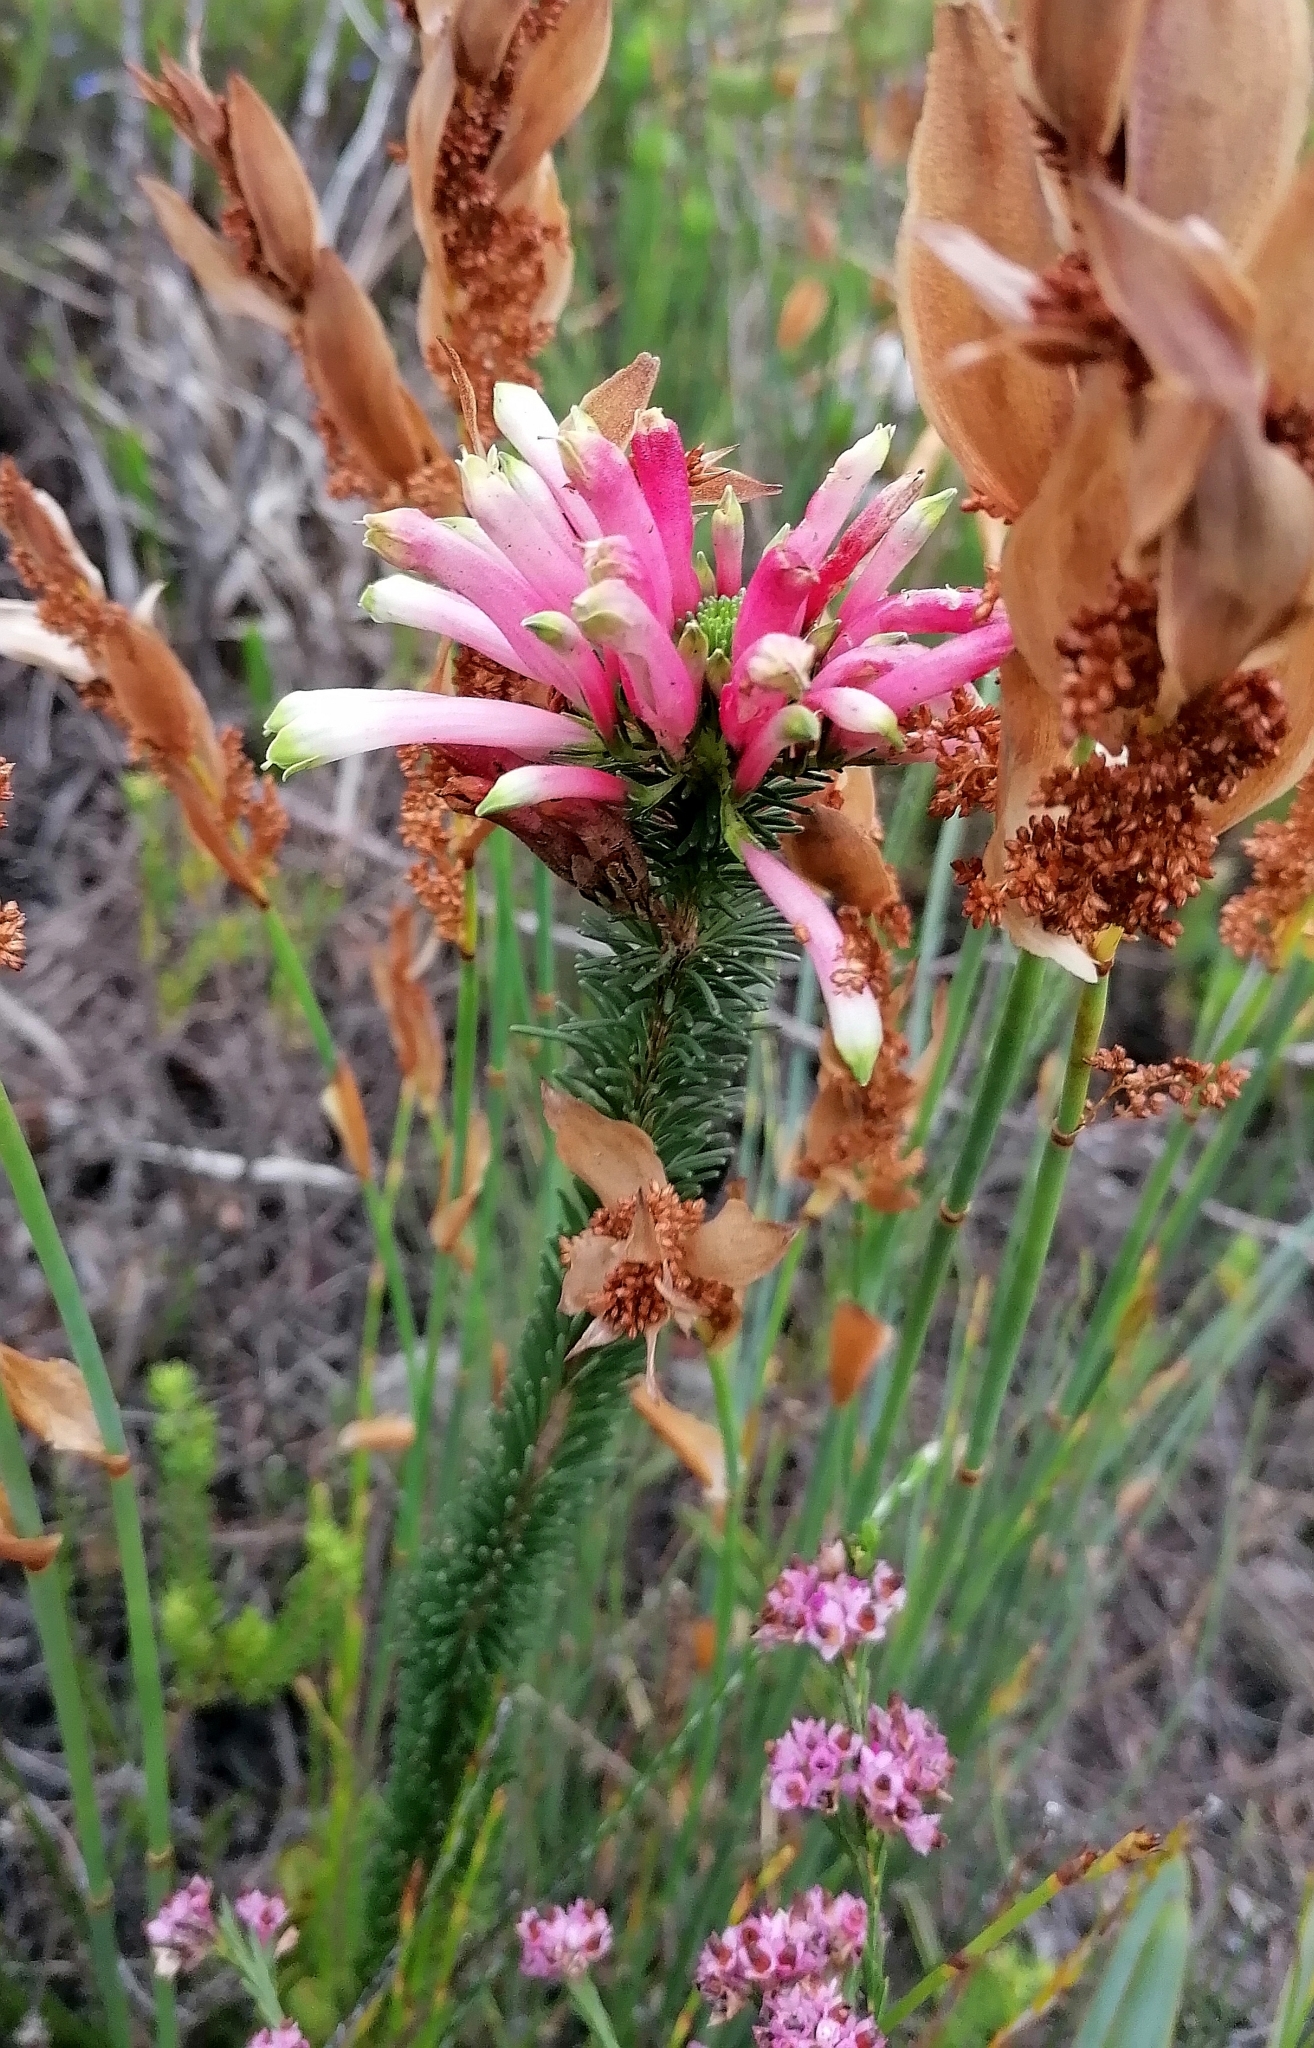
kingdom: Plantae
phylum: Tracheophyta
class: Magnoliopsida
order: Ericales
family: Ericaceae
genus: Erica
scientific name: Erica fascicularis
